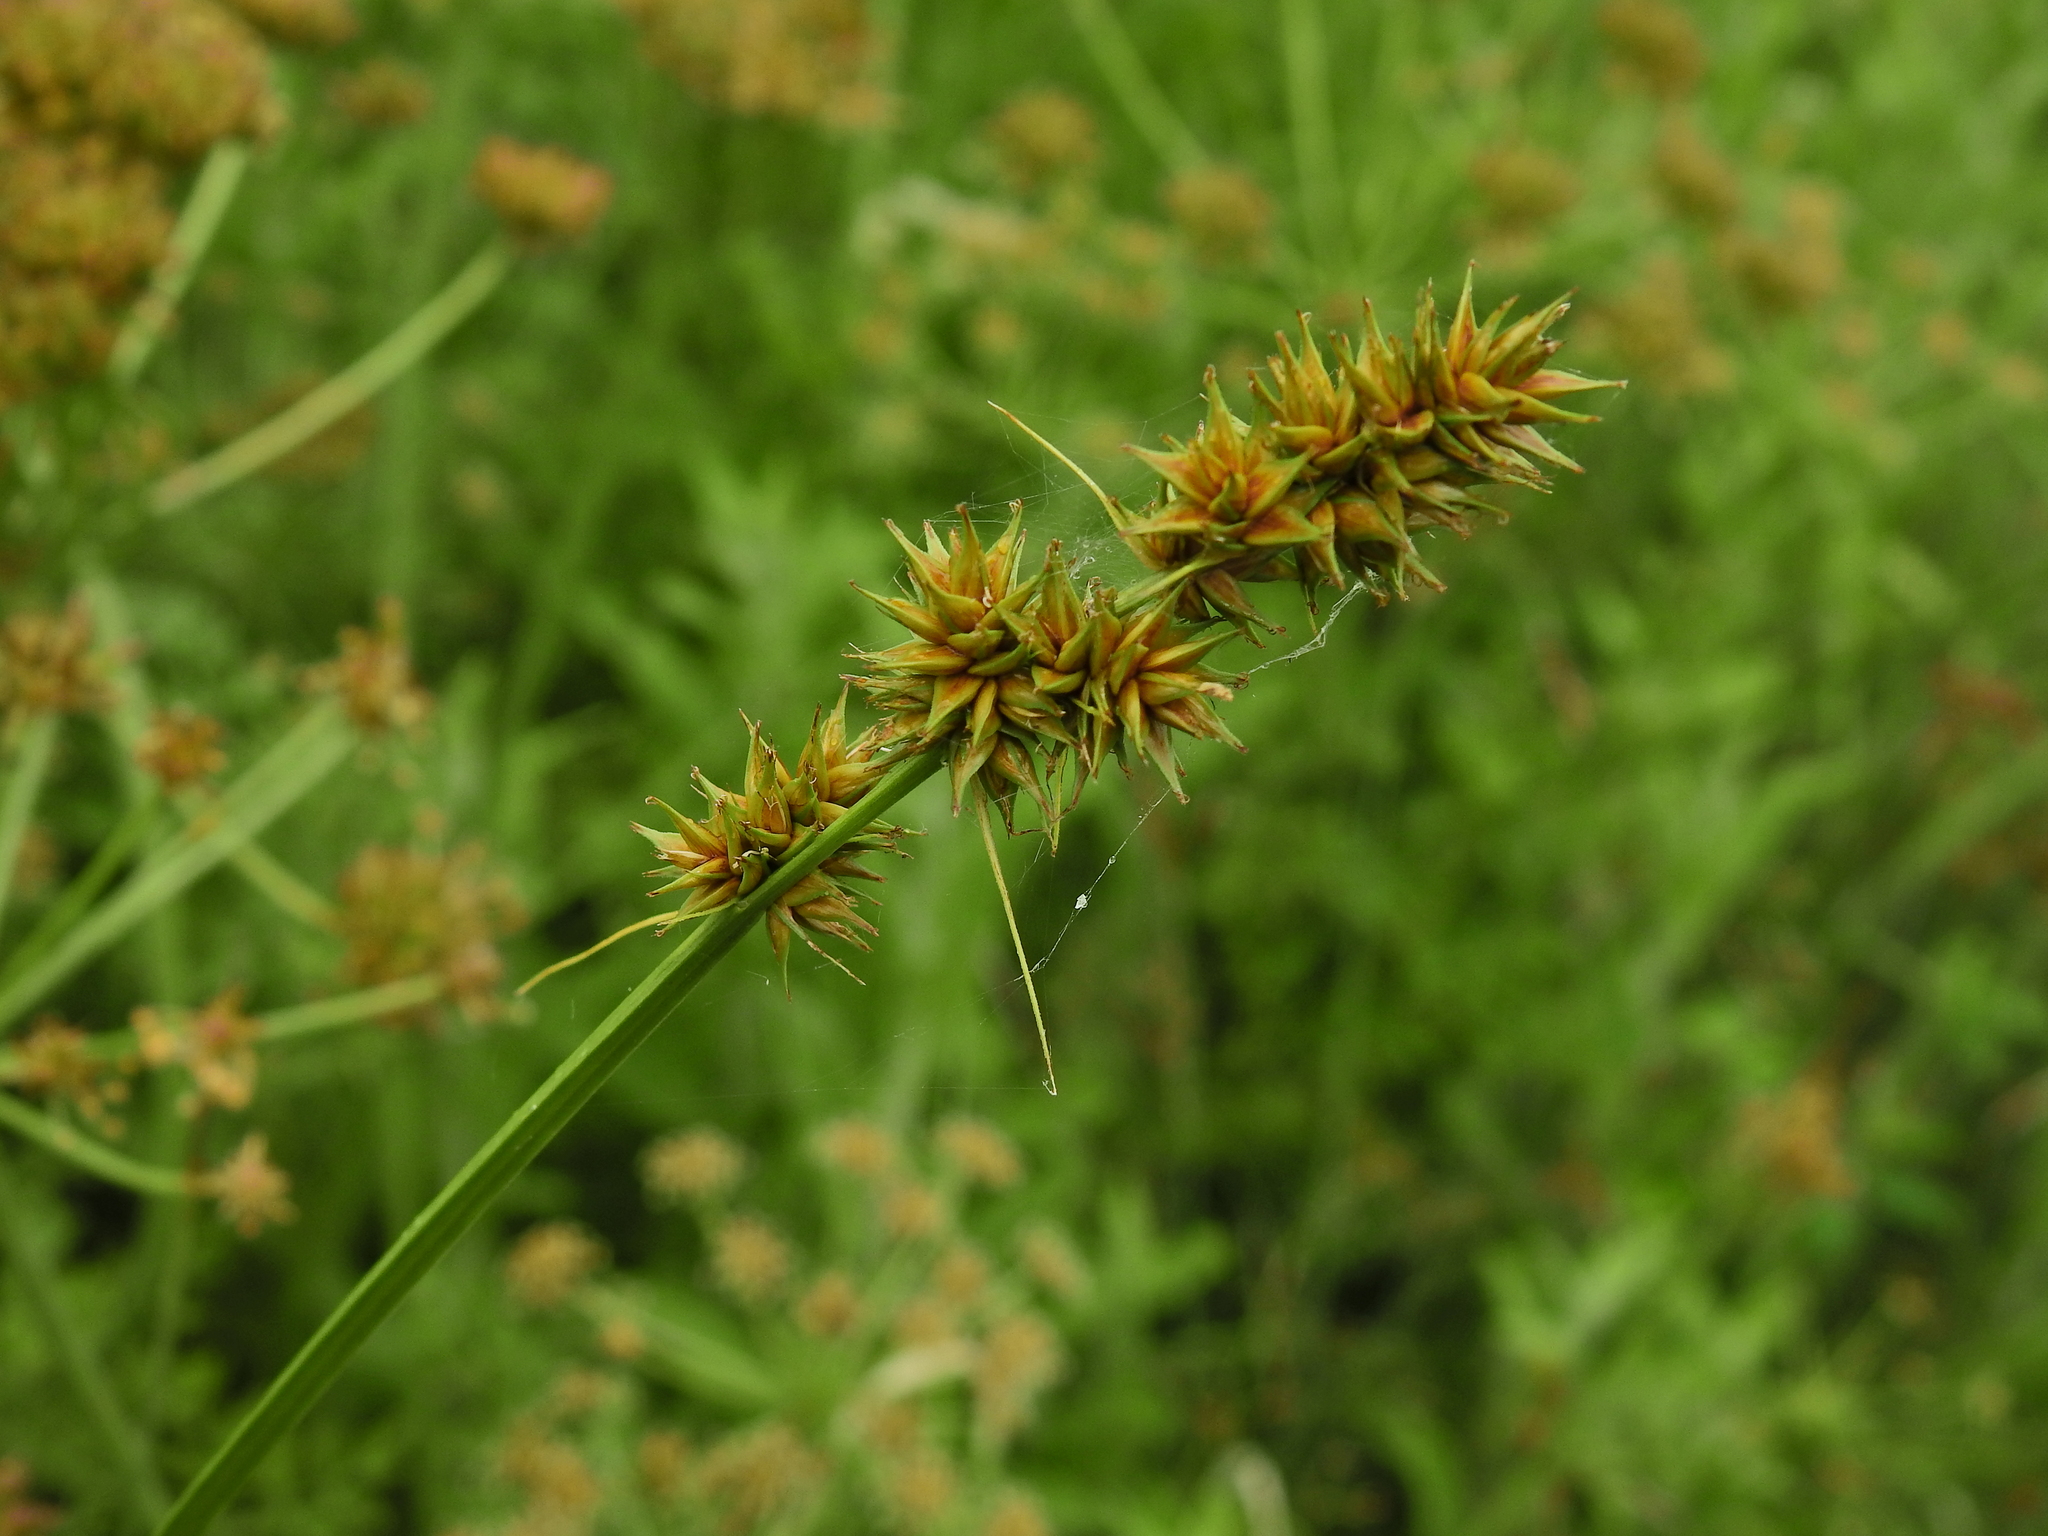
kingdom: Plantae
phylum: Tracheophyta
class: Liliopsida
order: Poales
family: Cyperaceae
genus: Carex
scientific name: Carex otrubae
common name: False fox-sedge
